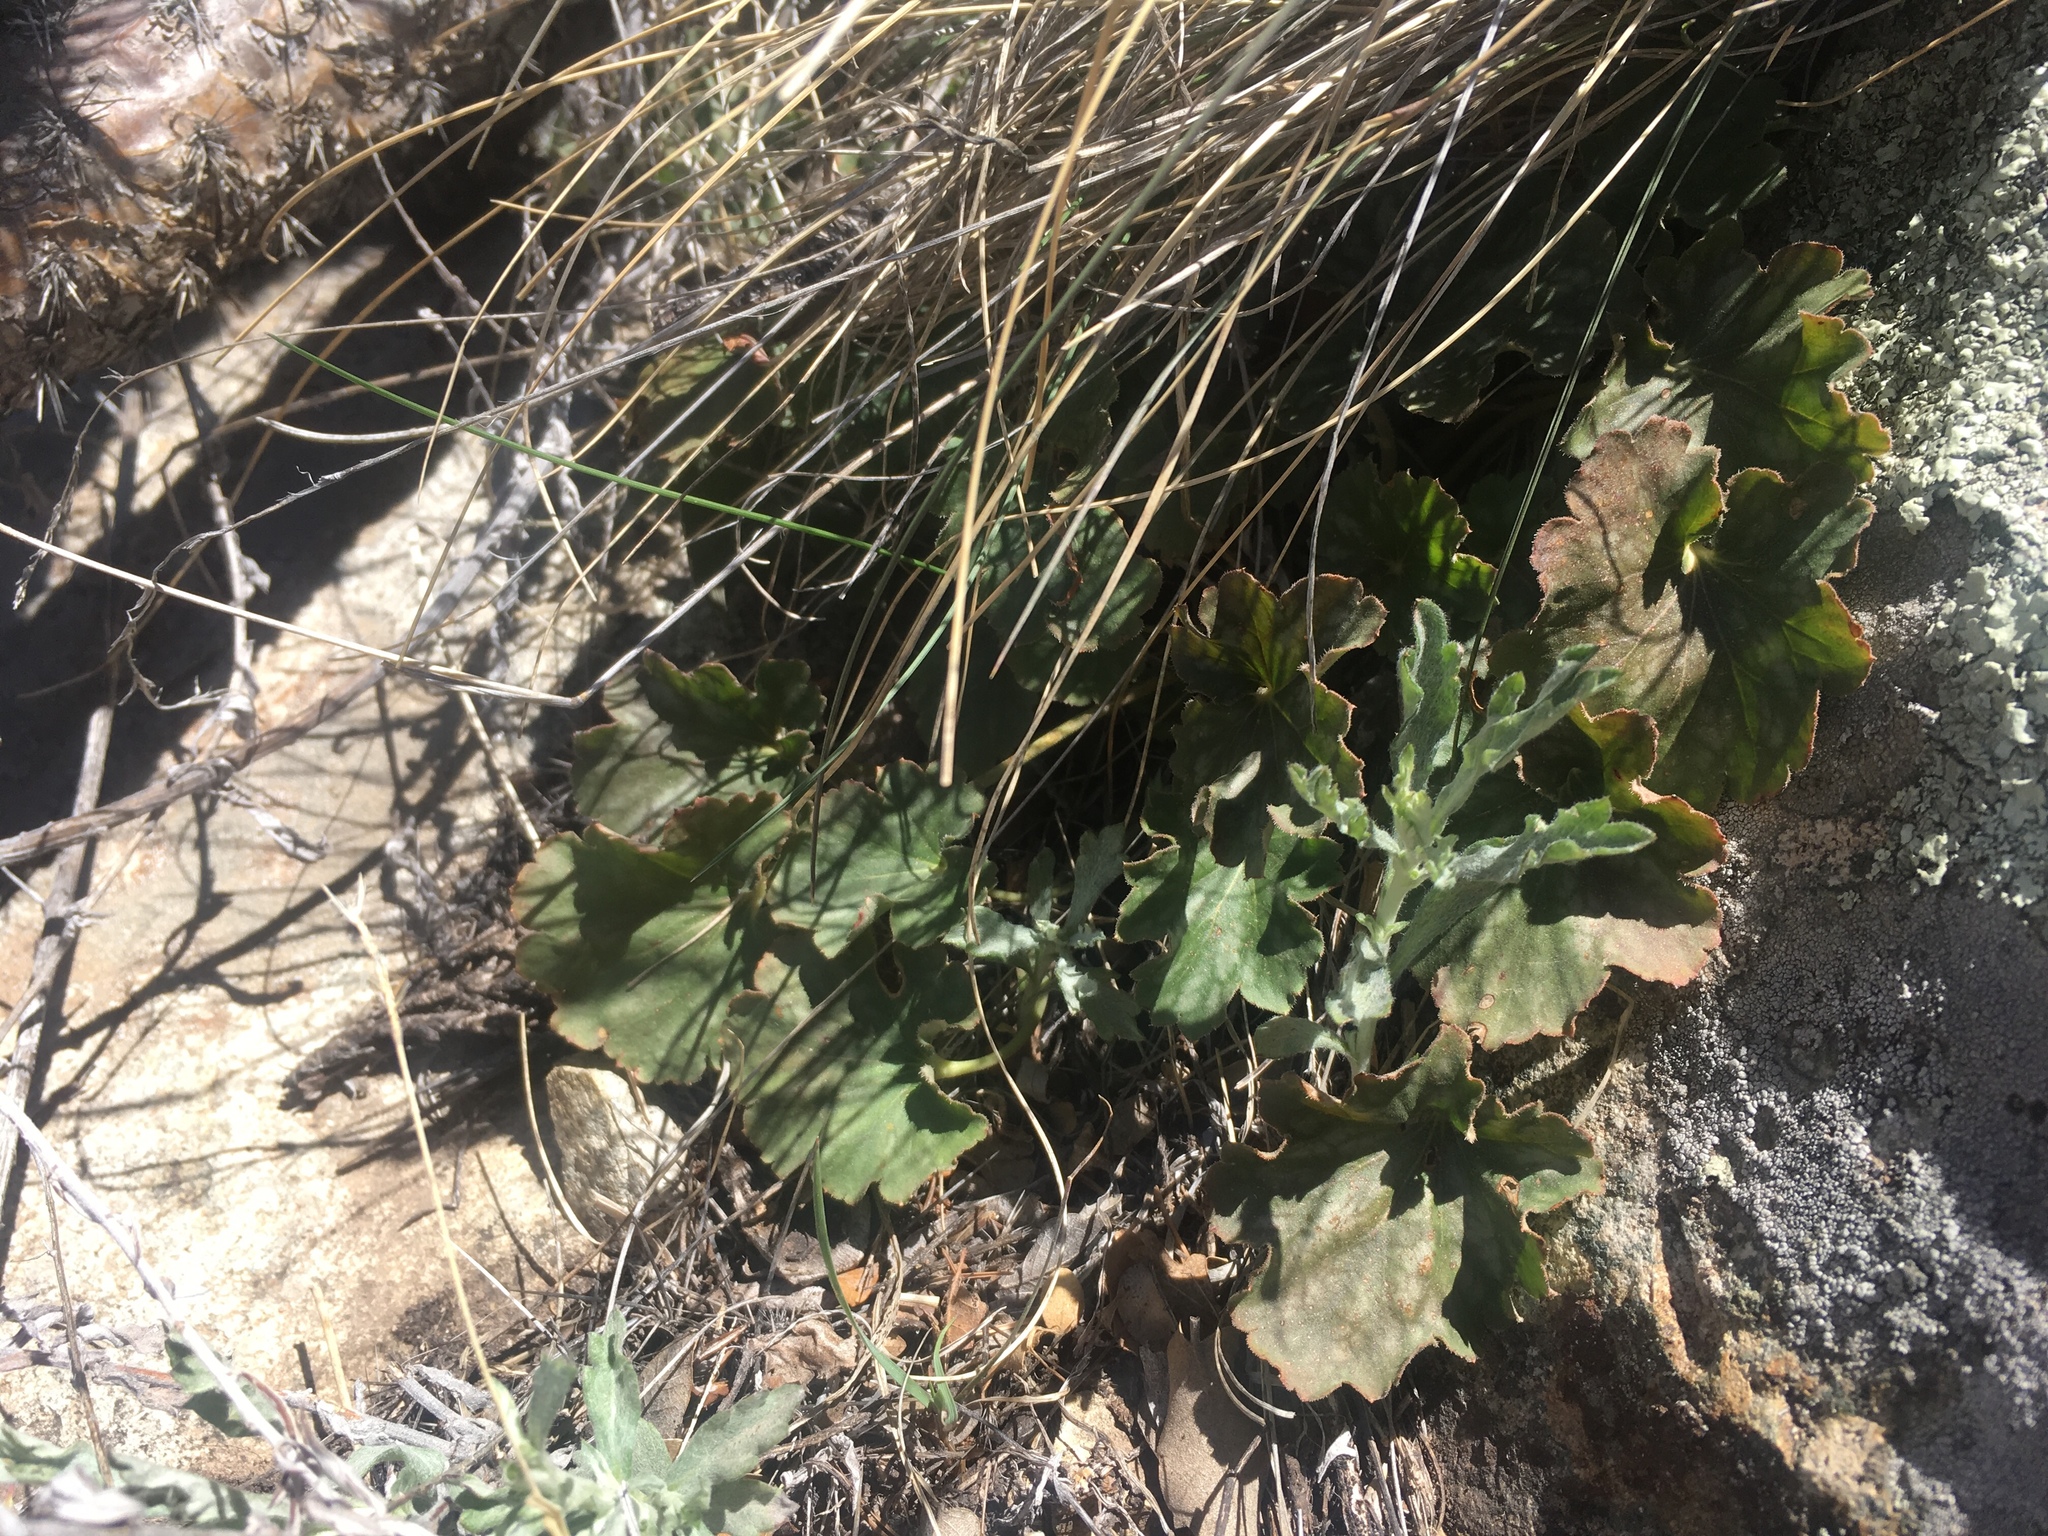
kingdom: Plantae
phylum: Tracheophyta
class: Magnoliopsida
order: Saxifragales
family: Saxifragaceae
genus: Heuchera
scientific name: Heuchera soltisii
